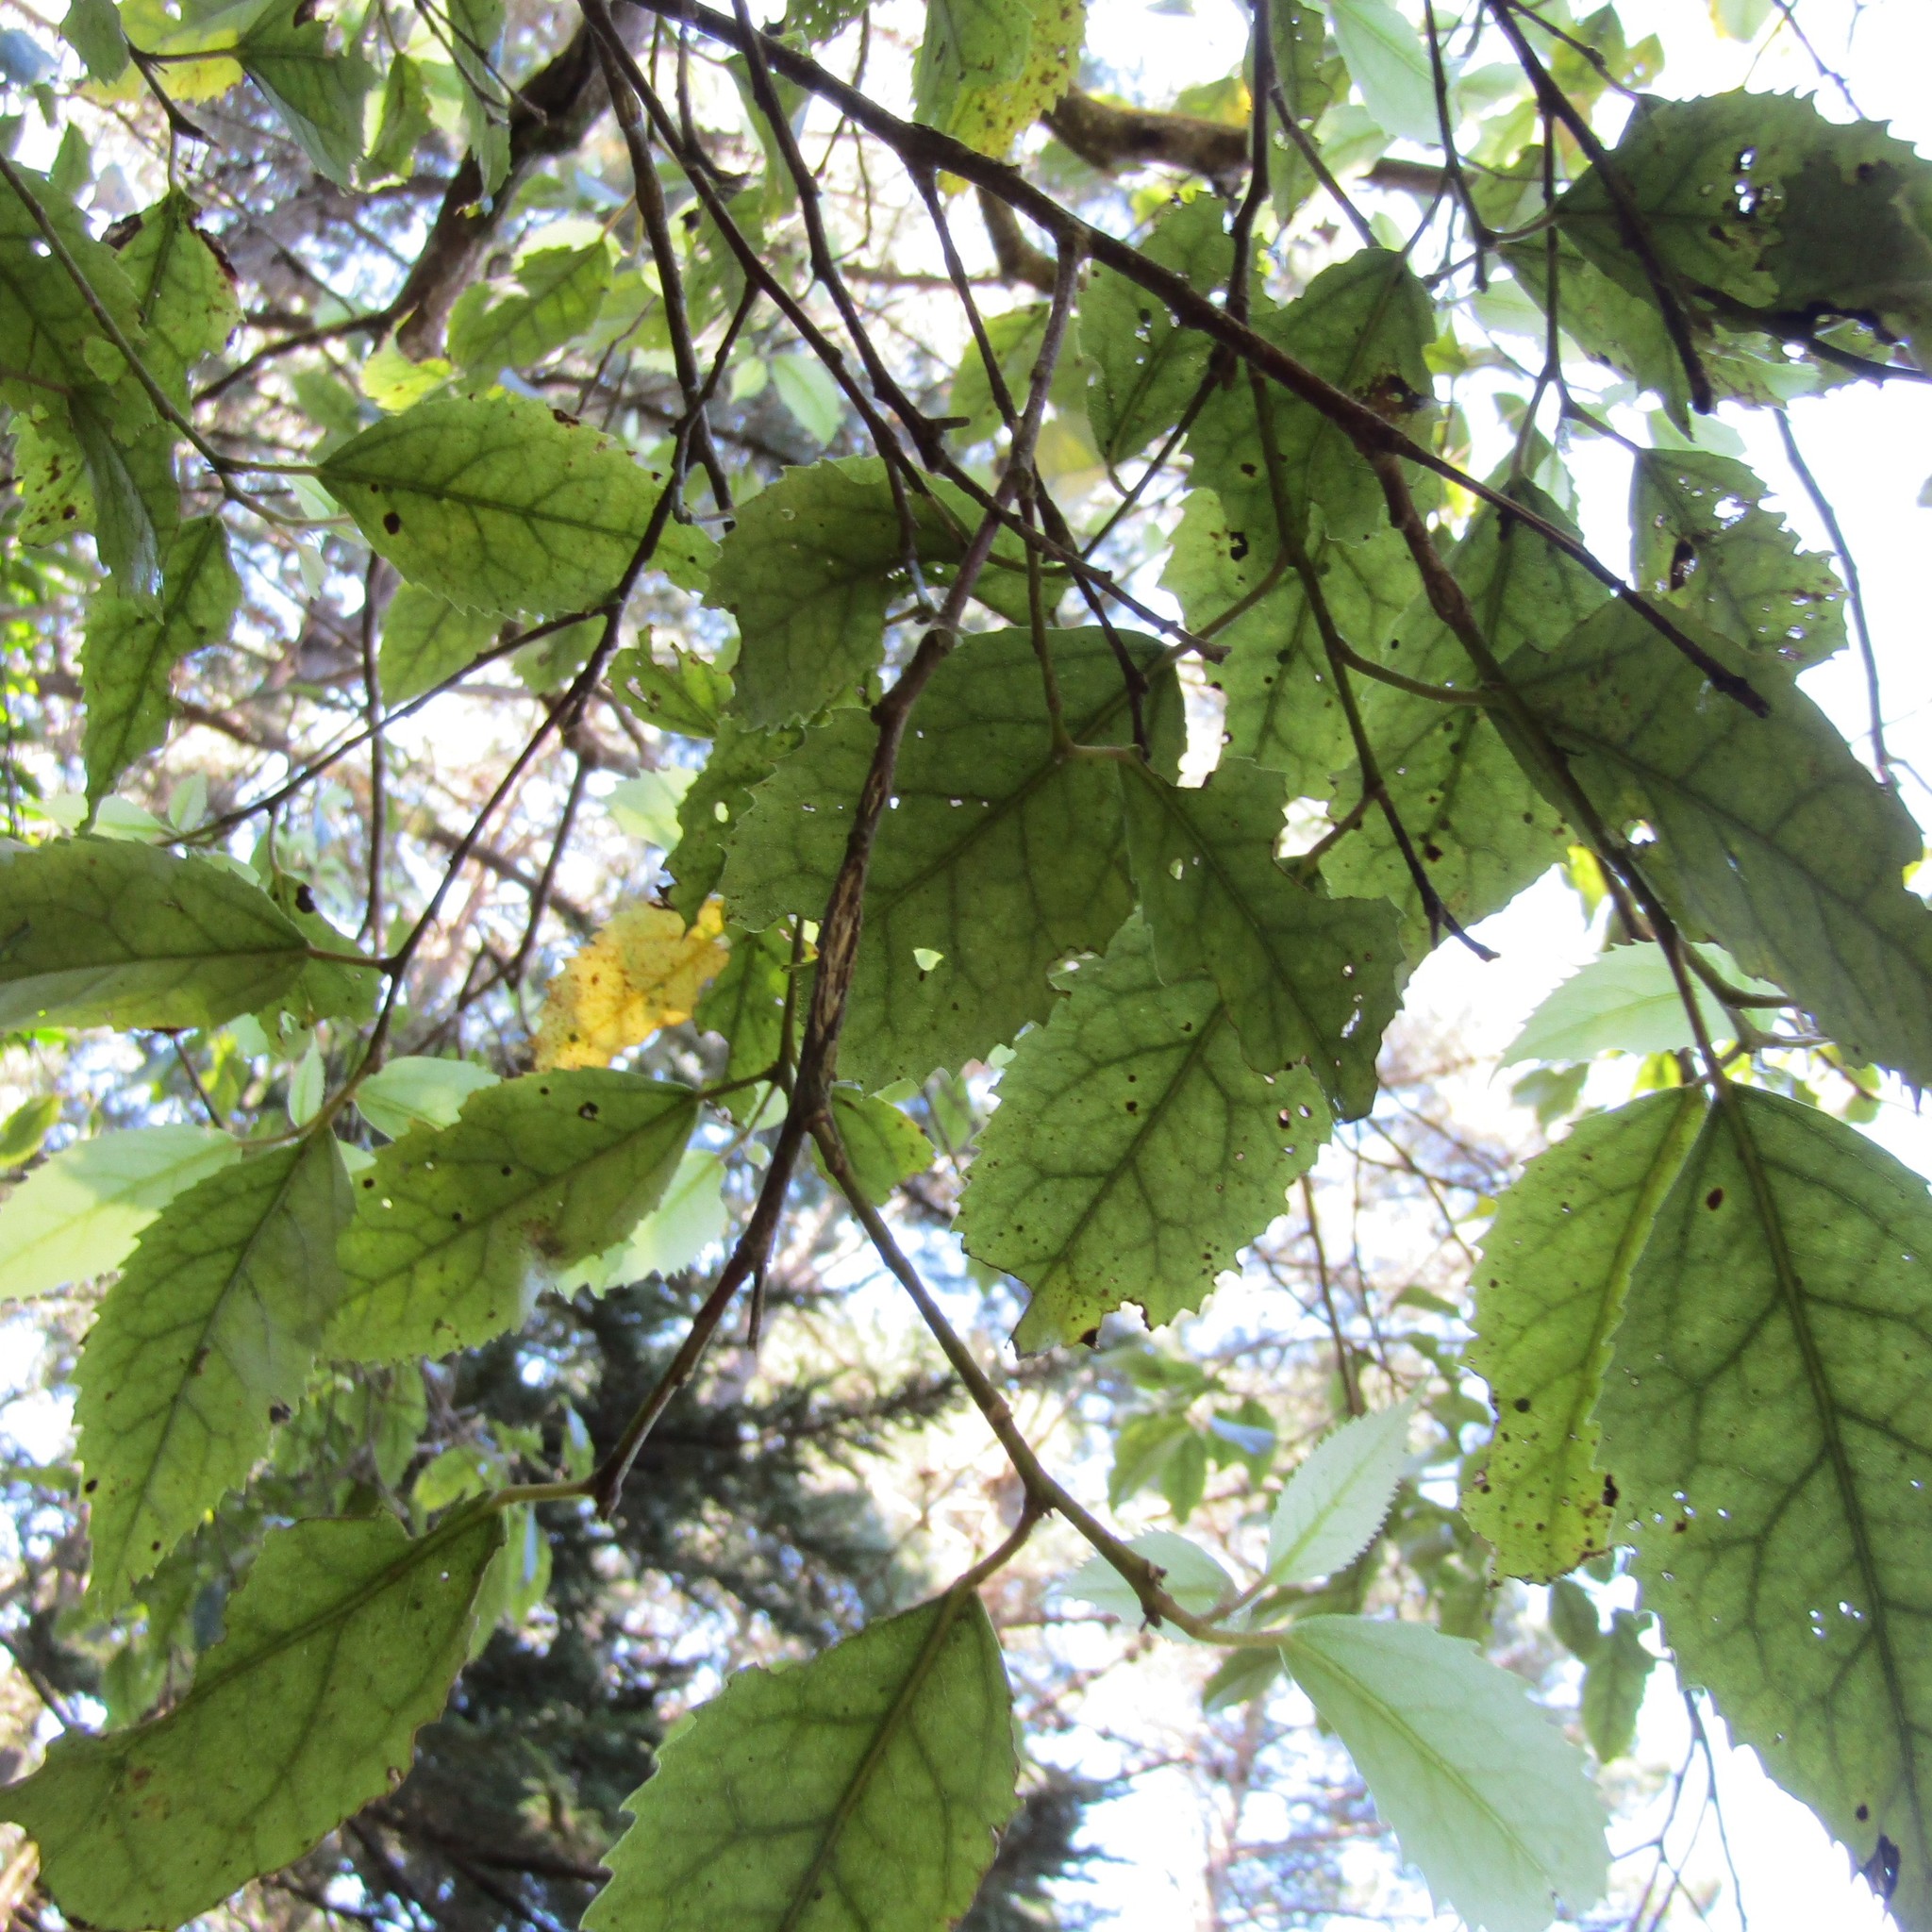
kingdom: Plantae
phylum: Tracheophyta
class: Magnoliopsida
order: Malvales
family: Malvaceae
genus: Hoheria
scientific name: Hoheria populnea
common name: Lacebark
